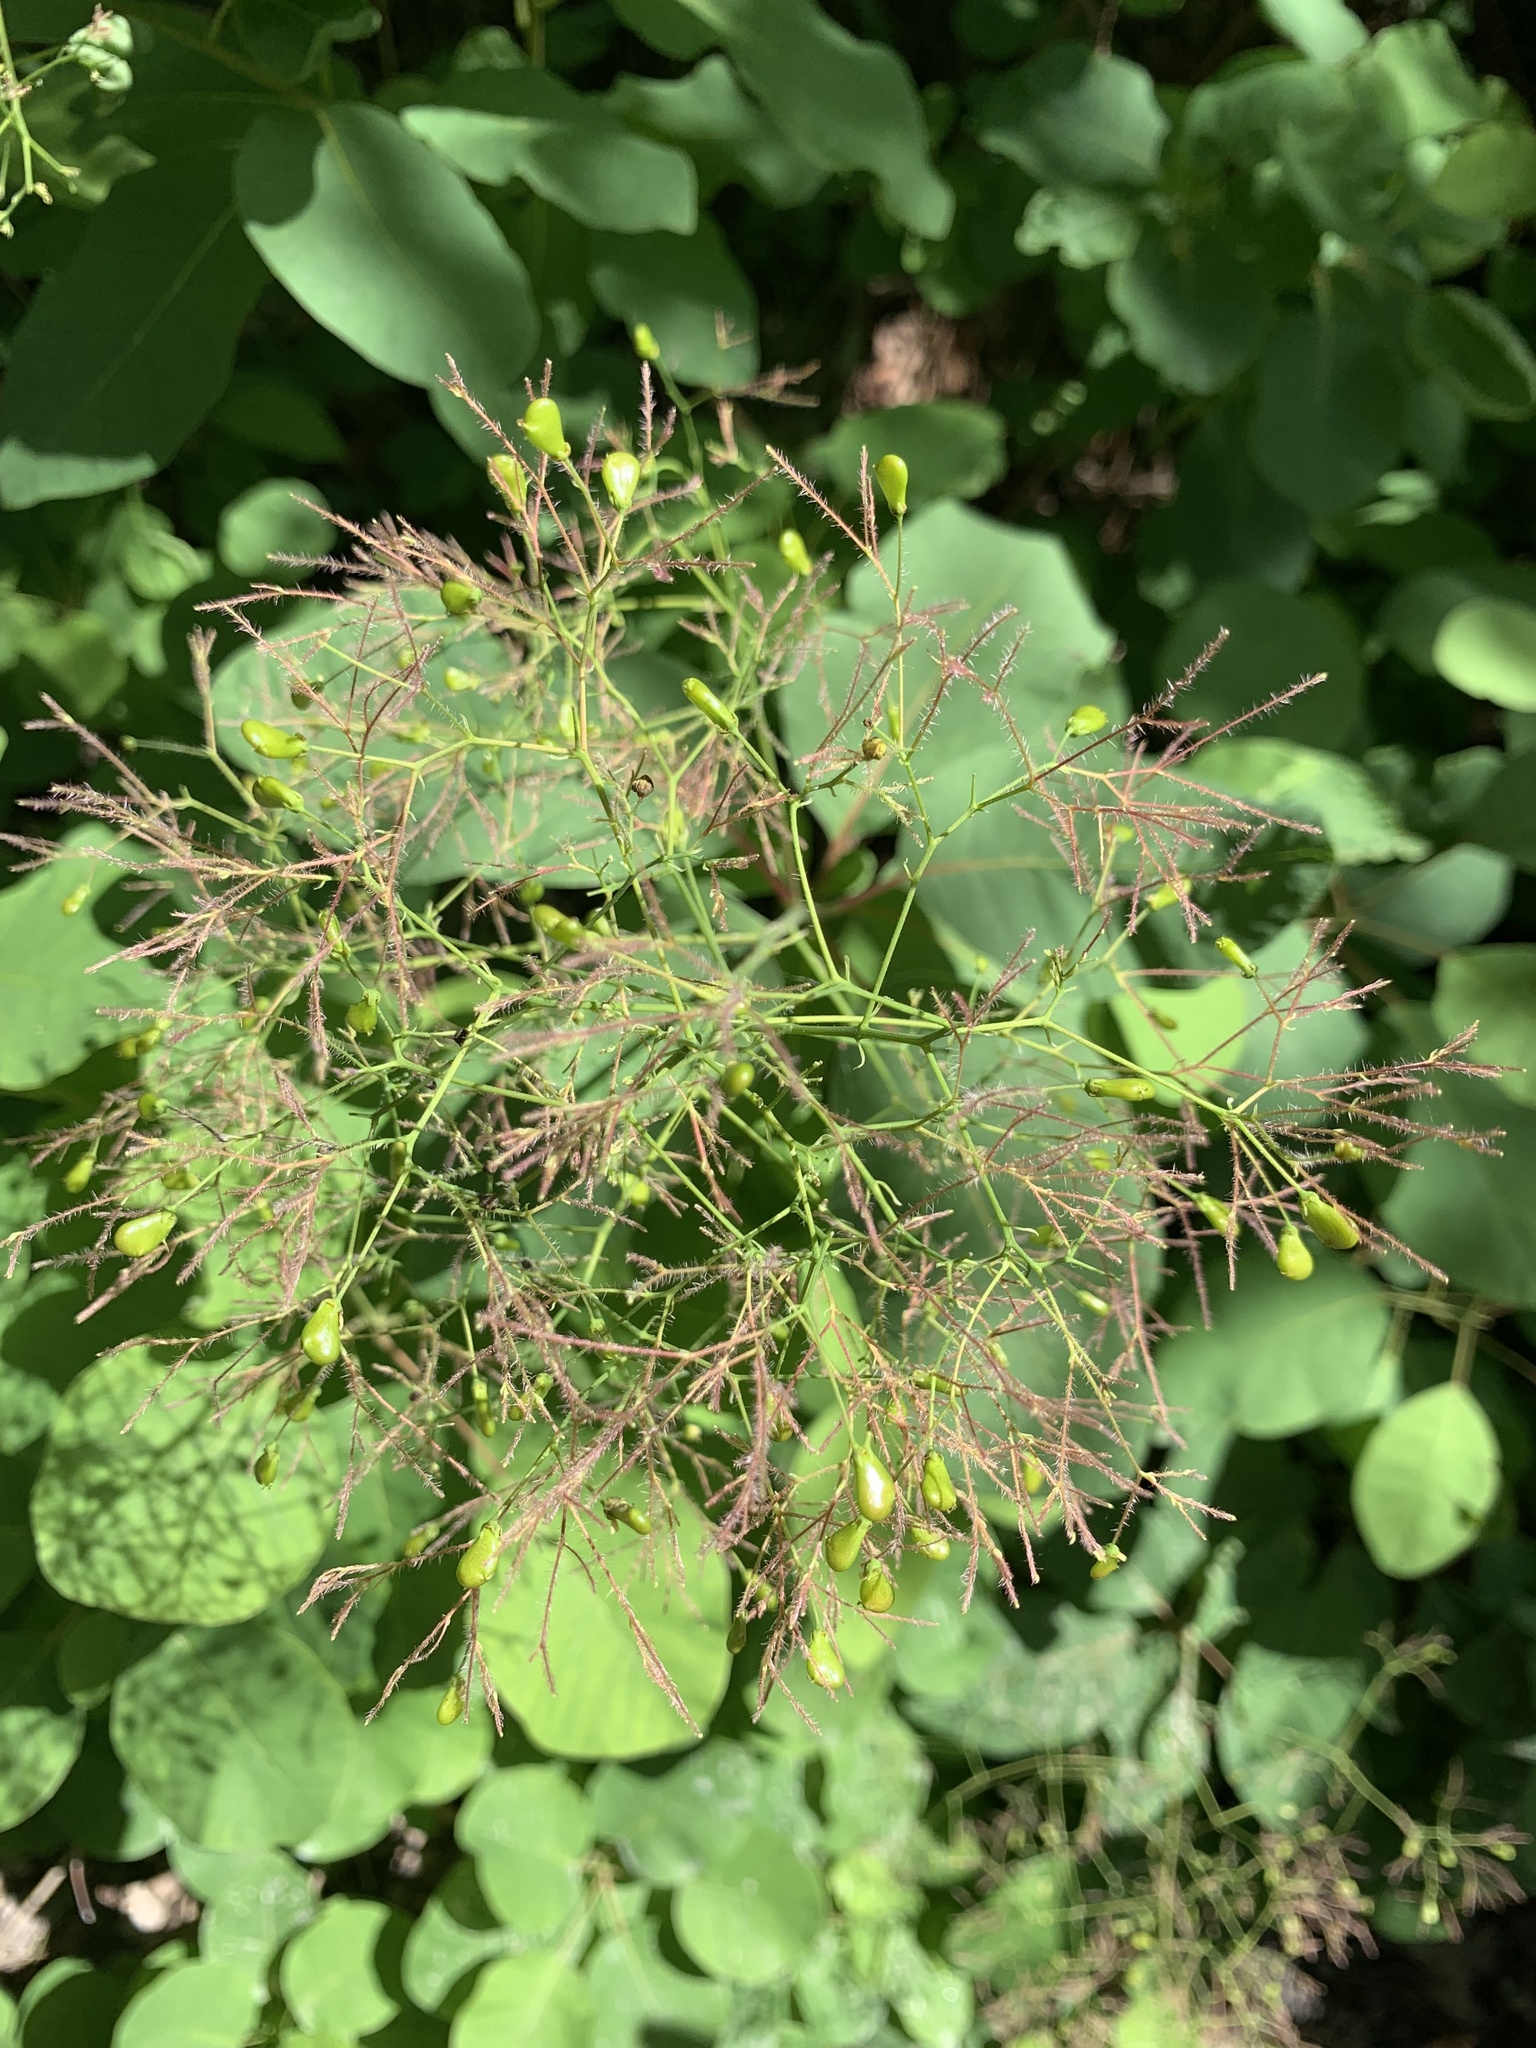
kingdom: Plantae
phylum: Tracheophyta
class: Magnoliopsida
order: Sapindales
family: Anacardiaceae
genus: Cotinus
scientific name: Cotinus coggygria
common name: Smoke-tree
